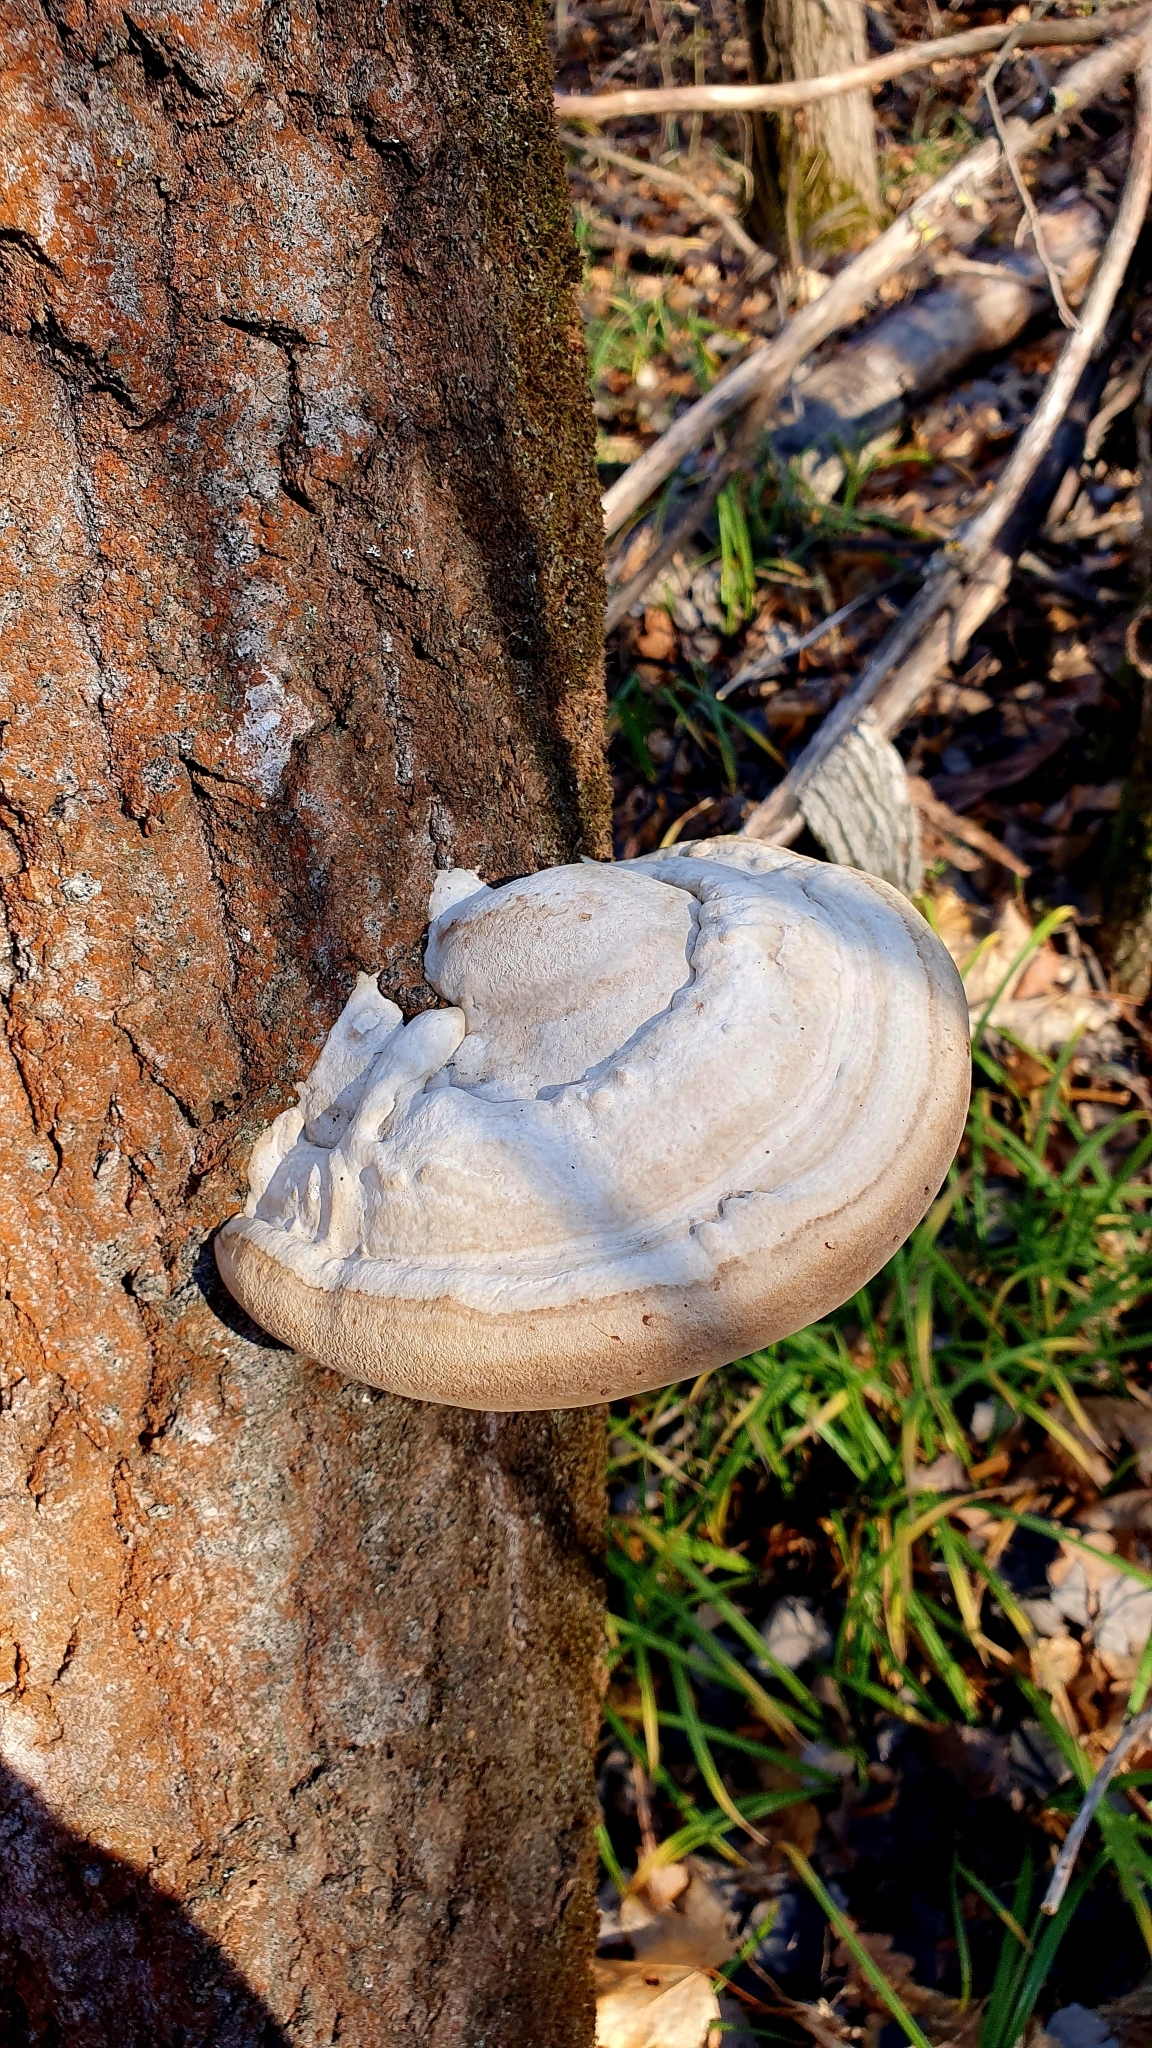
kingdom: Fungi
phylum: Basidiomycota
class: Agaricomycetes
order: Polyporales
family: Polyporaceae
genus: Fomes
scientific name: Fomes fomentarius
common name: Hoof fungus
